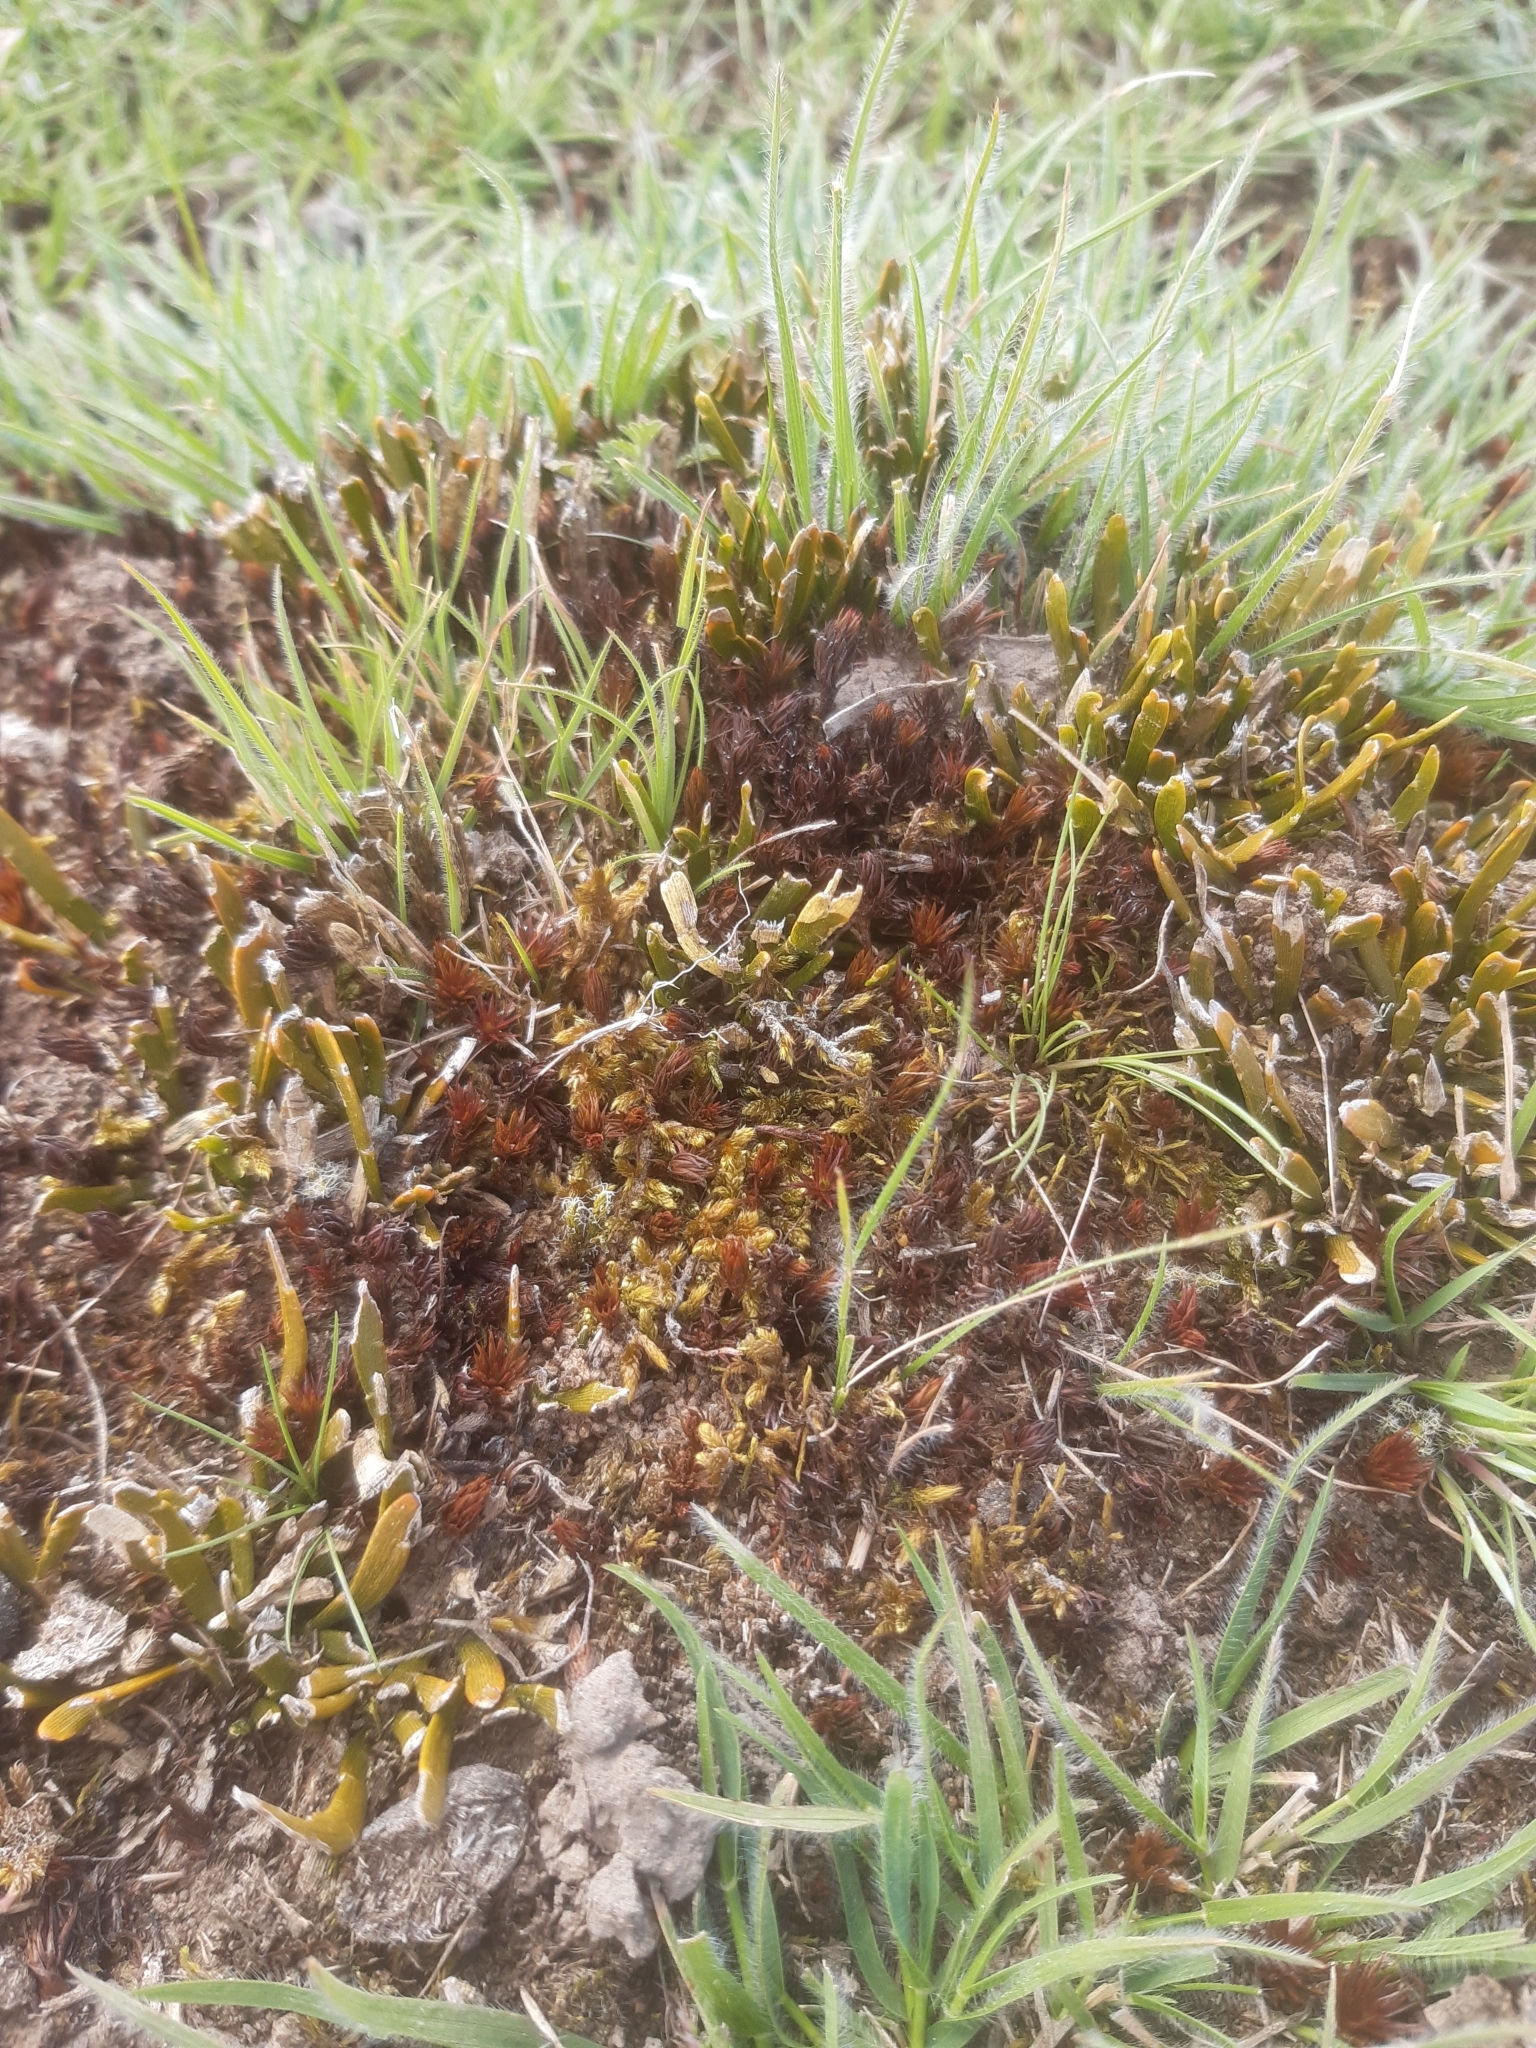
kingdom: Plantae
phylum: Tracheophyta
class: Magnoliopsida
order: Fabales
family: Fabaceae
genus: Carmichaelia
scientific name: Carmichaelia corrugata
